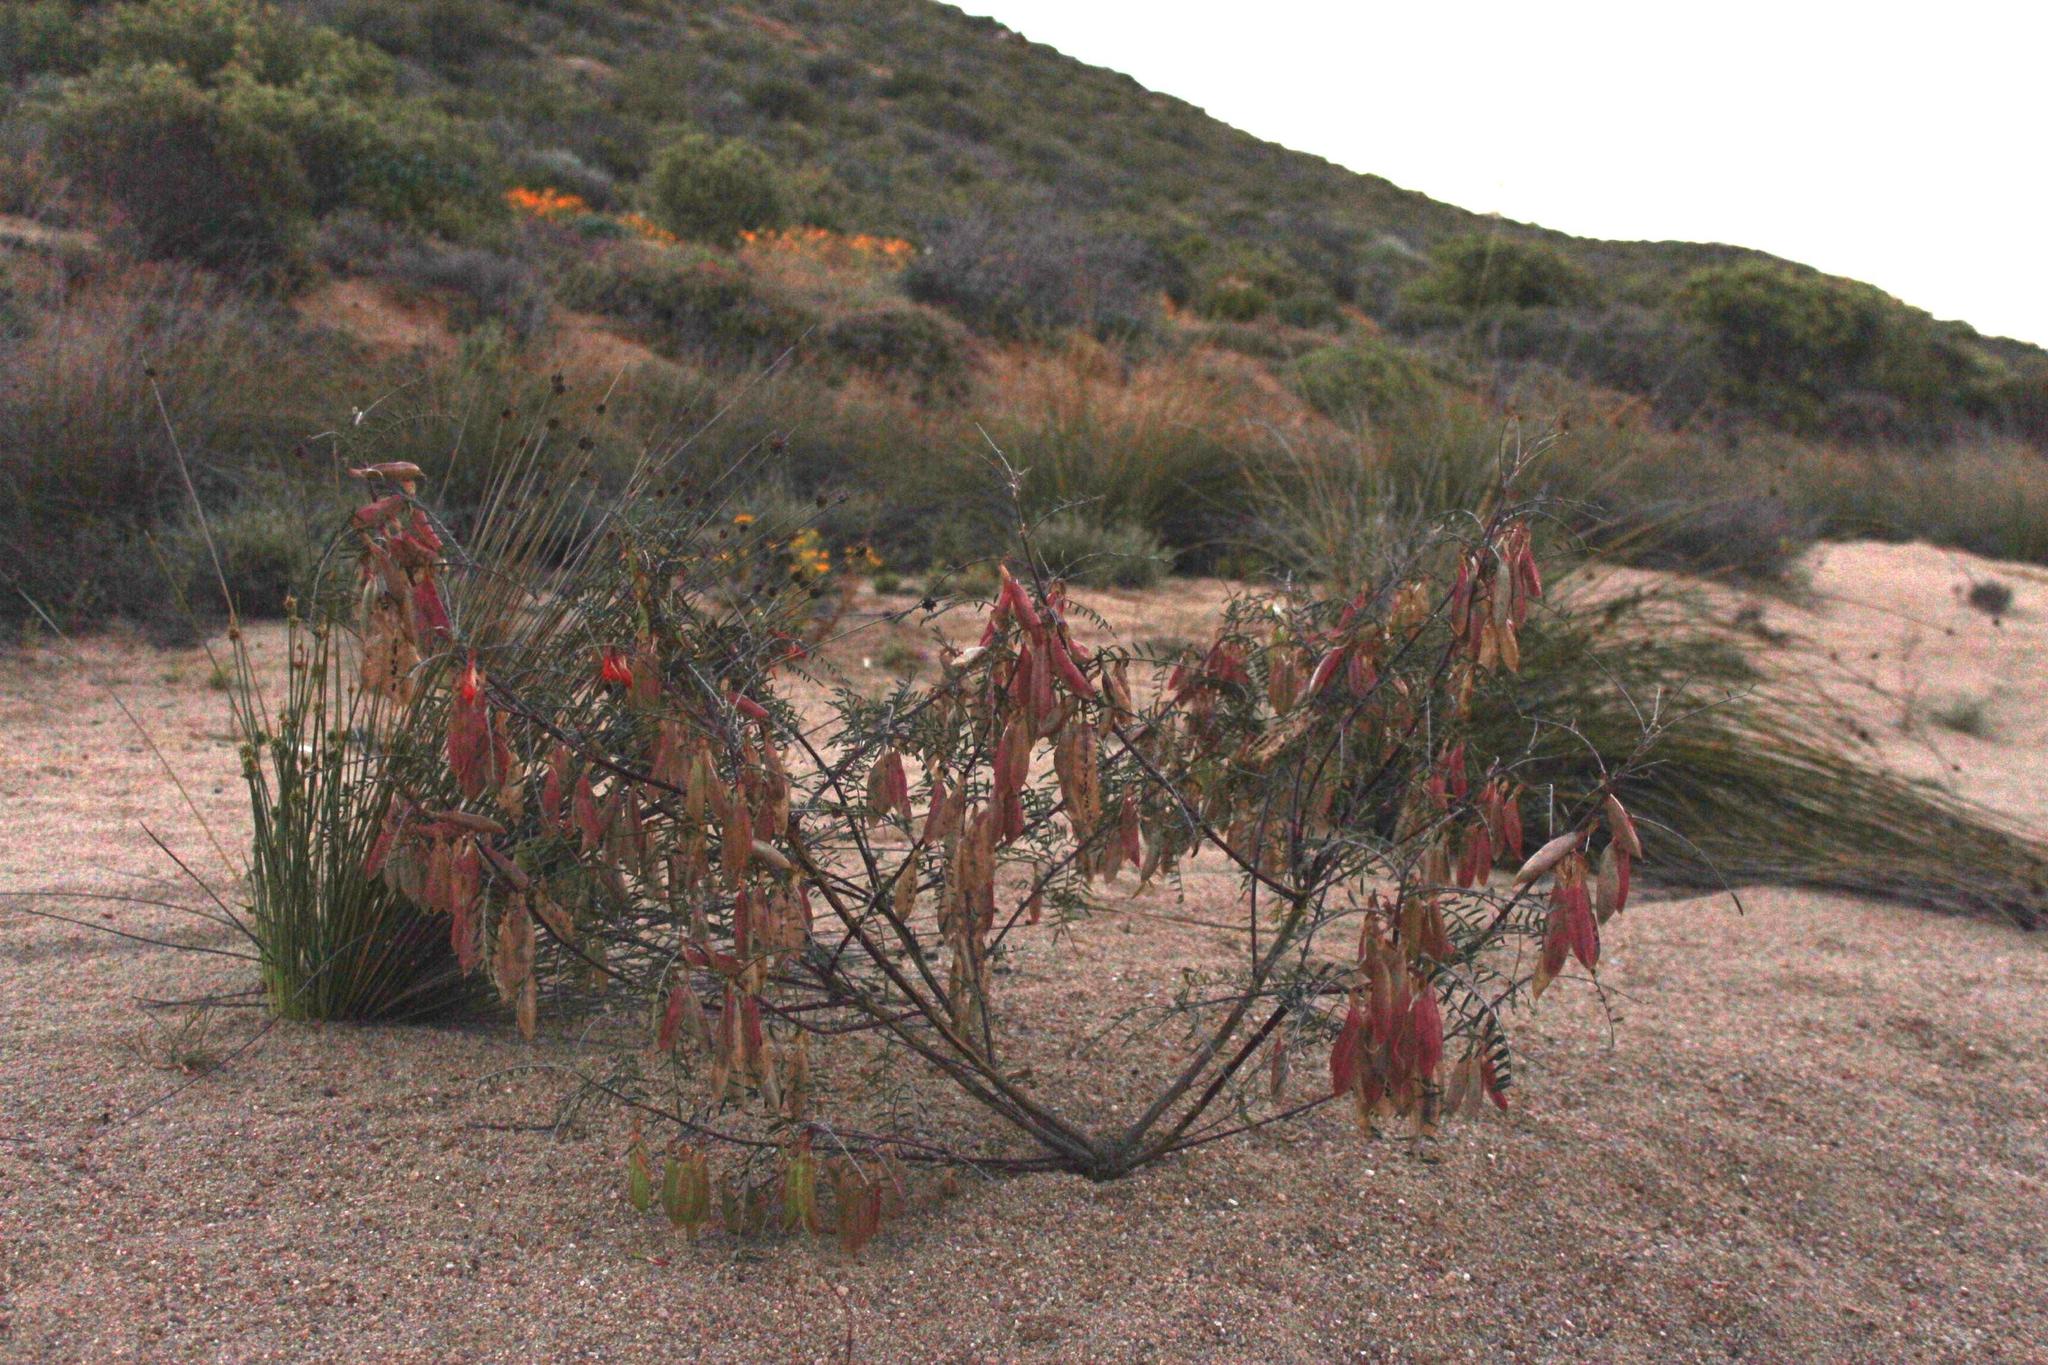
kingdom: Plantae
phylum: Tracheophyta
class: Magnoliopsida
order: Fabales
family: Fabaceae
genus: Lessertia
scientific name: Lessertia frutescens
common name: Balloon-pea
